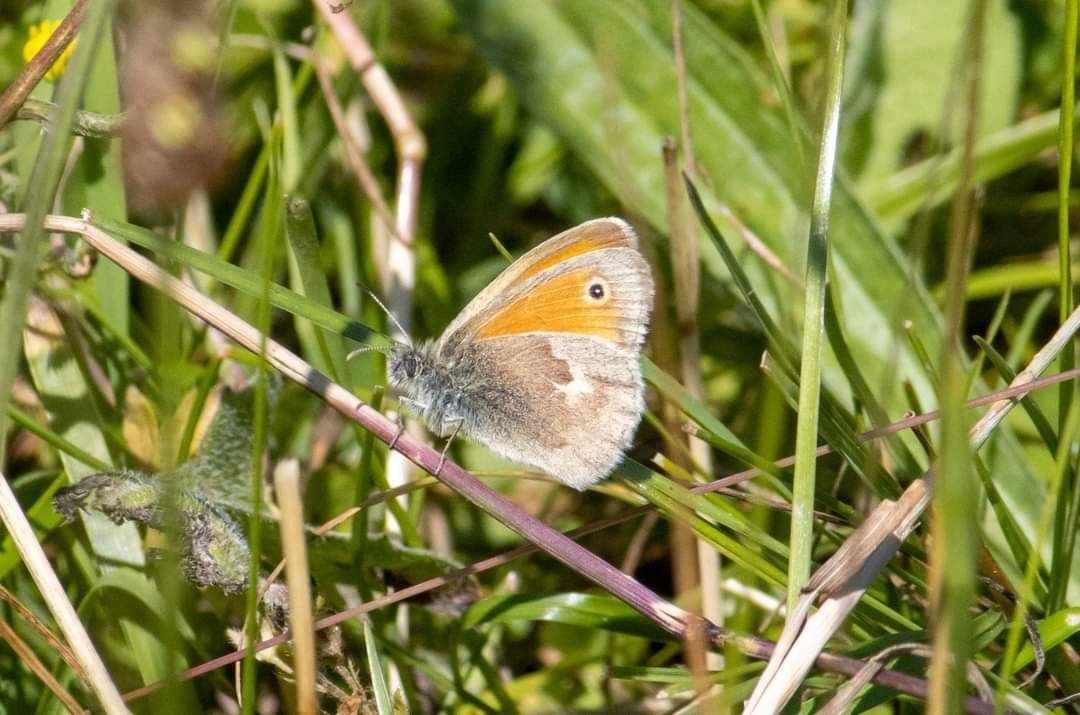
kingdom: Animalia
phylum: Arthropoda
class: Insecta
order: Lepidoptera
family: Nymphalidae
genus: Coenonympha
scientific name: Coenonympha pamphilus
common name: Small heath
